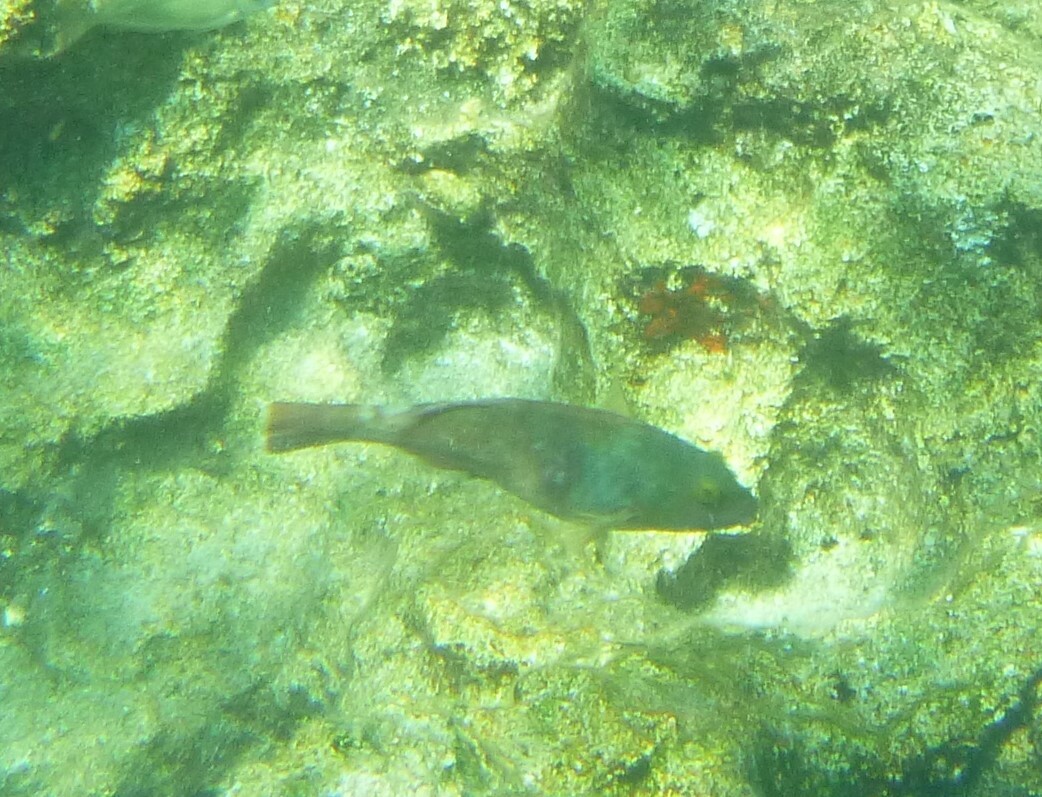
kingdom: Animalia
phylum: Chordata
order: Perciformes
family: Scaridae
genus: Sparisoma
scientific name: Sparisoma cretense
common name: Parrotfish
